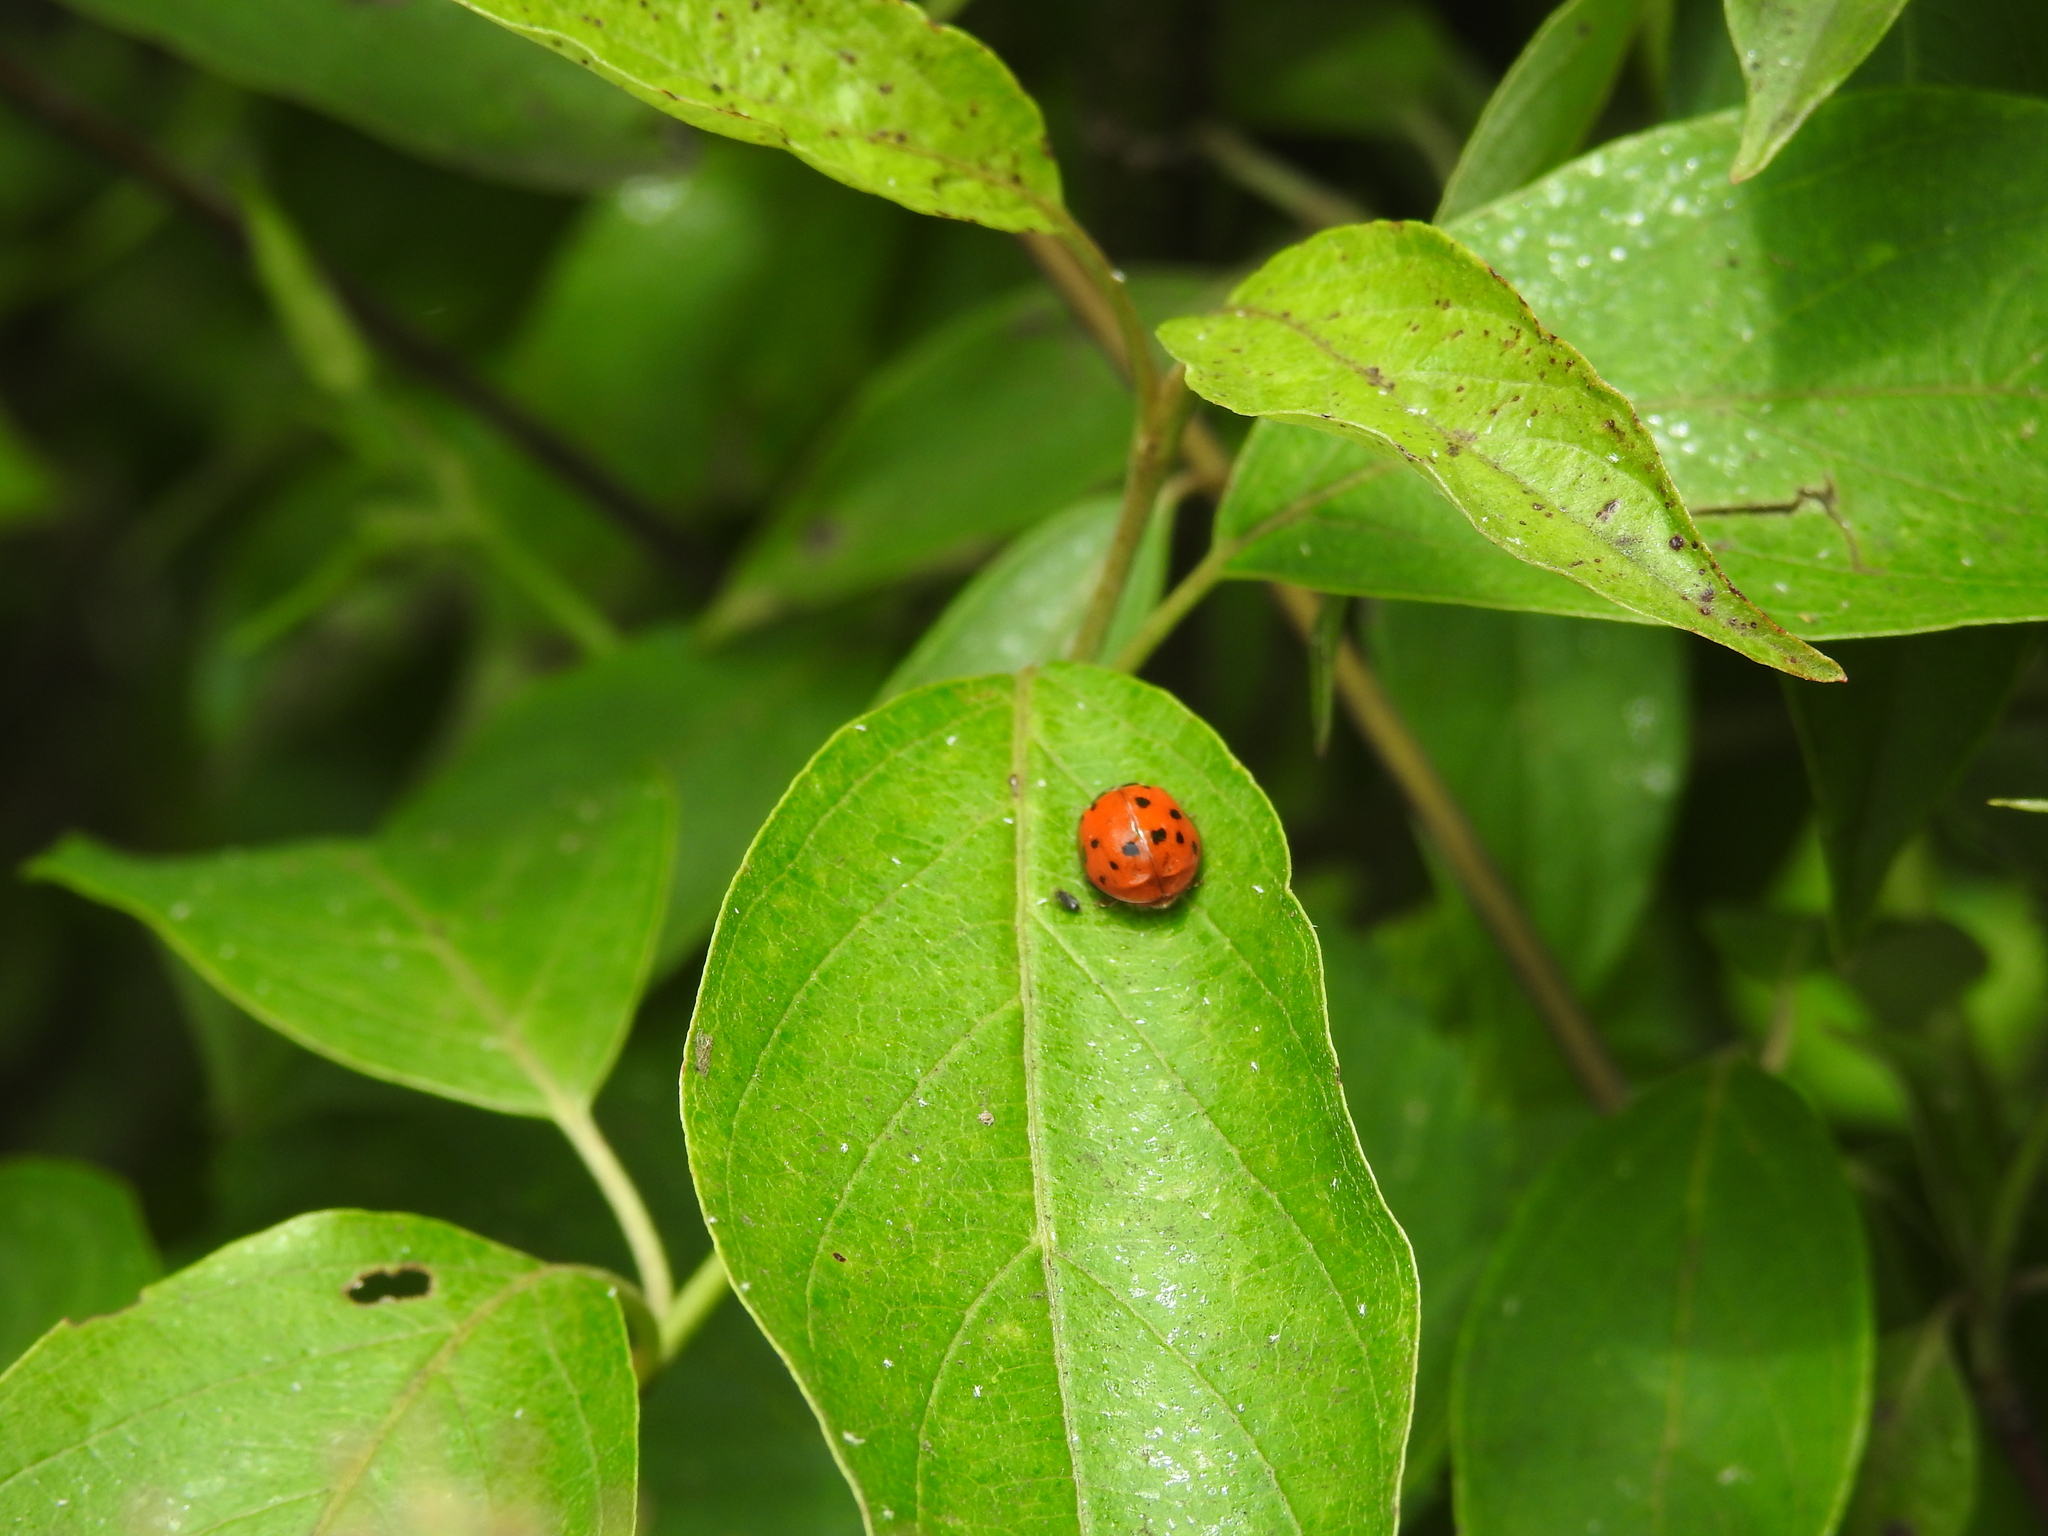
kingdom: Animalia
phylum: Arthropoda
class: Insecta
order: Coleoptera
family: Coccinellidae
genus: Harmonia
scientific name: Harmonia axyridis
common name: Harlequin ladybird
